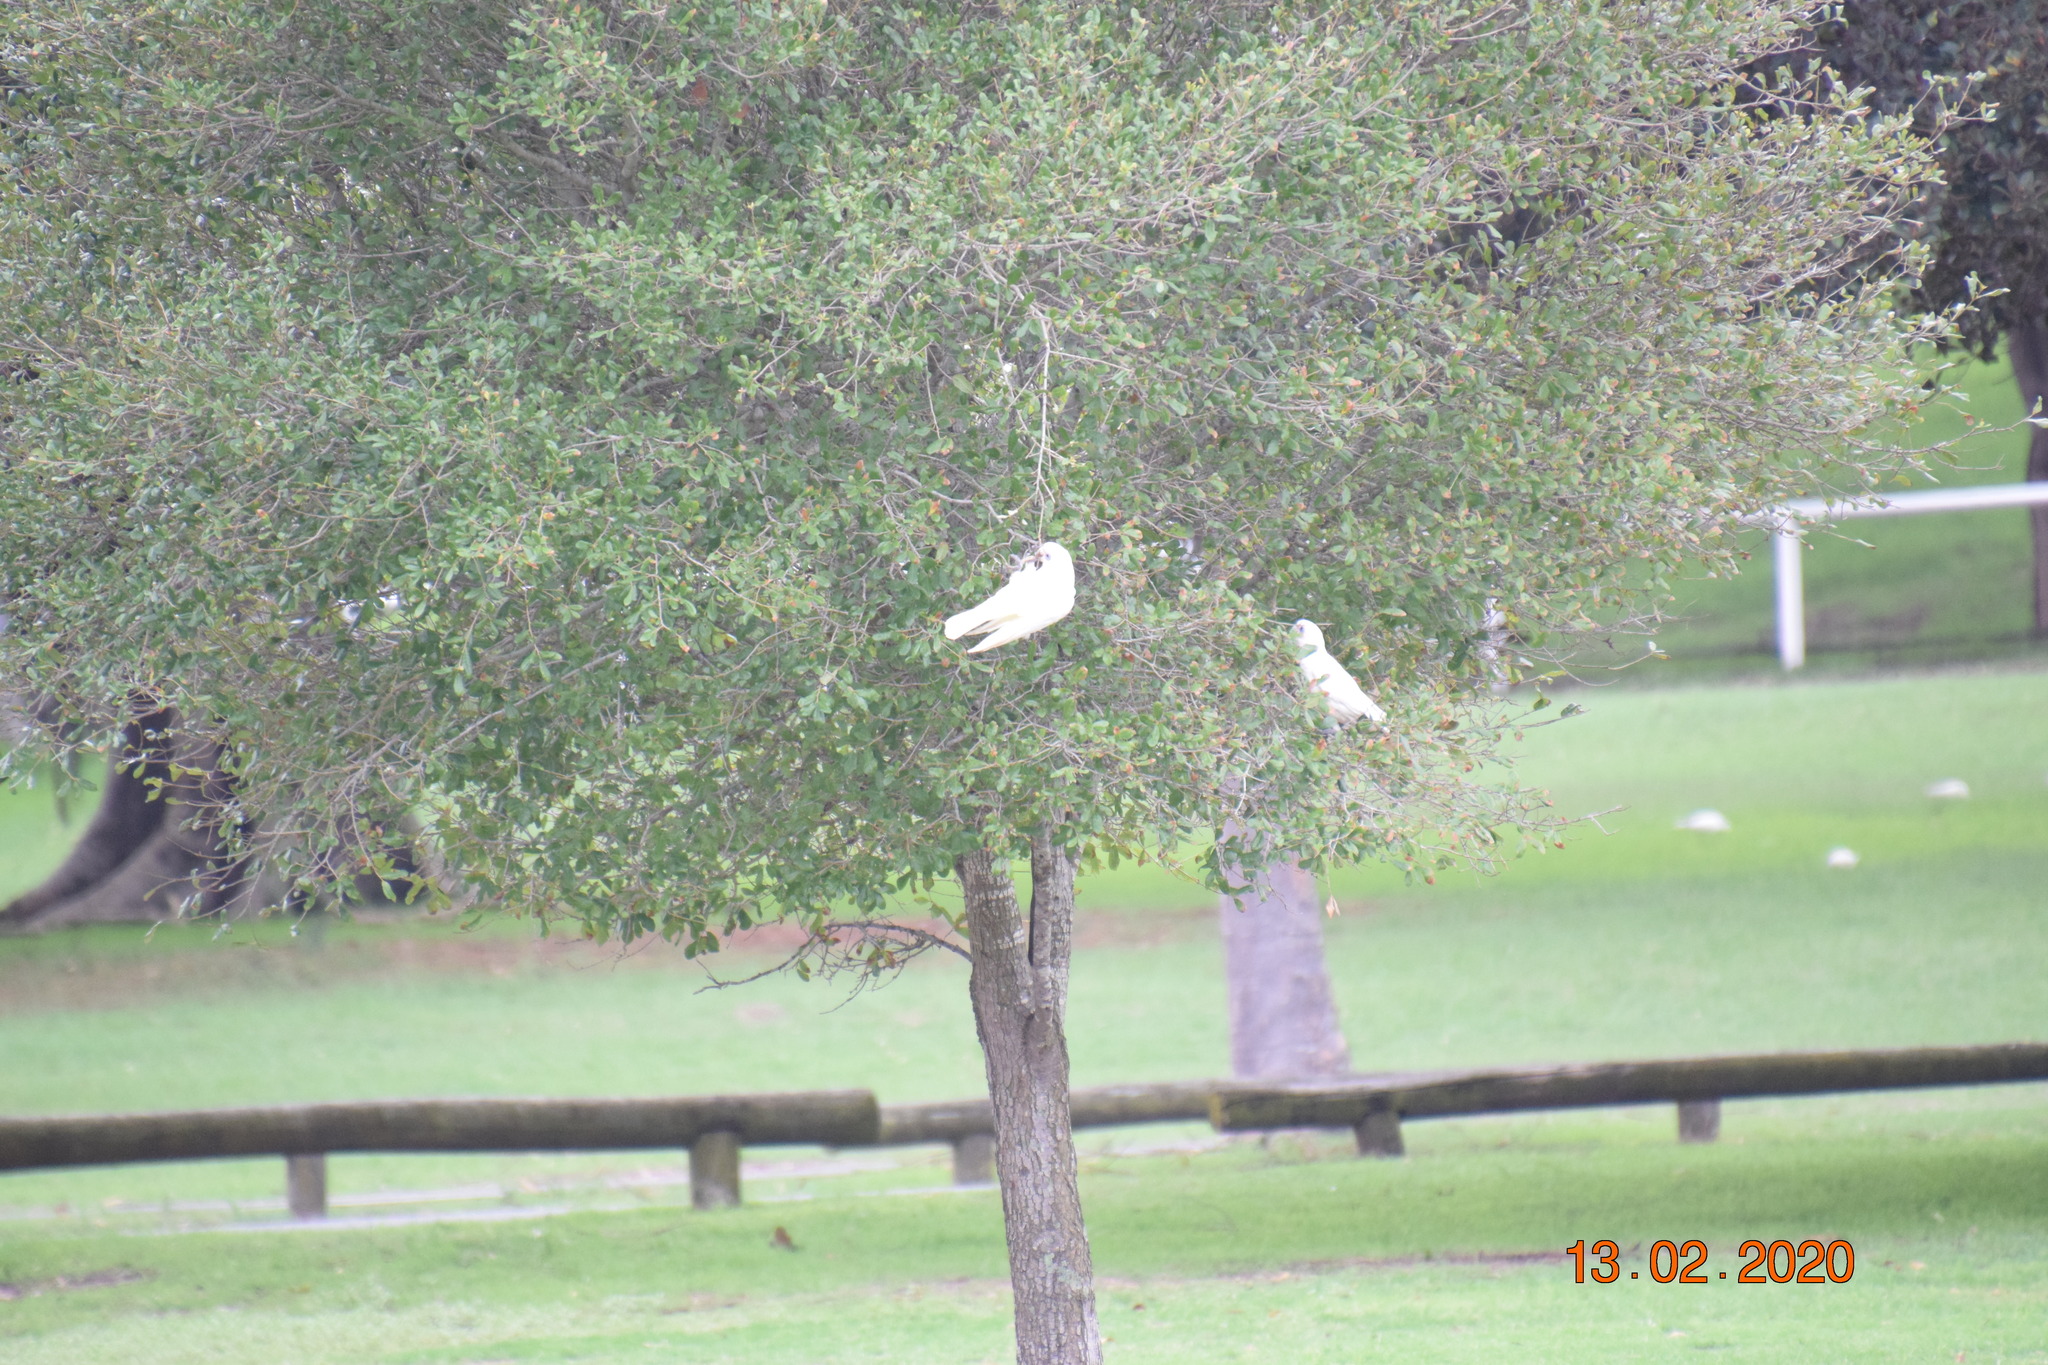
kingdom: Animalia
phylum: Chordata
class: Aves
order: Psittaciformes
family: Psittacidae
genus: Cacatua
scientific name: Cacatua sanguinea
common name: Little corella
